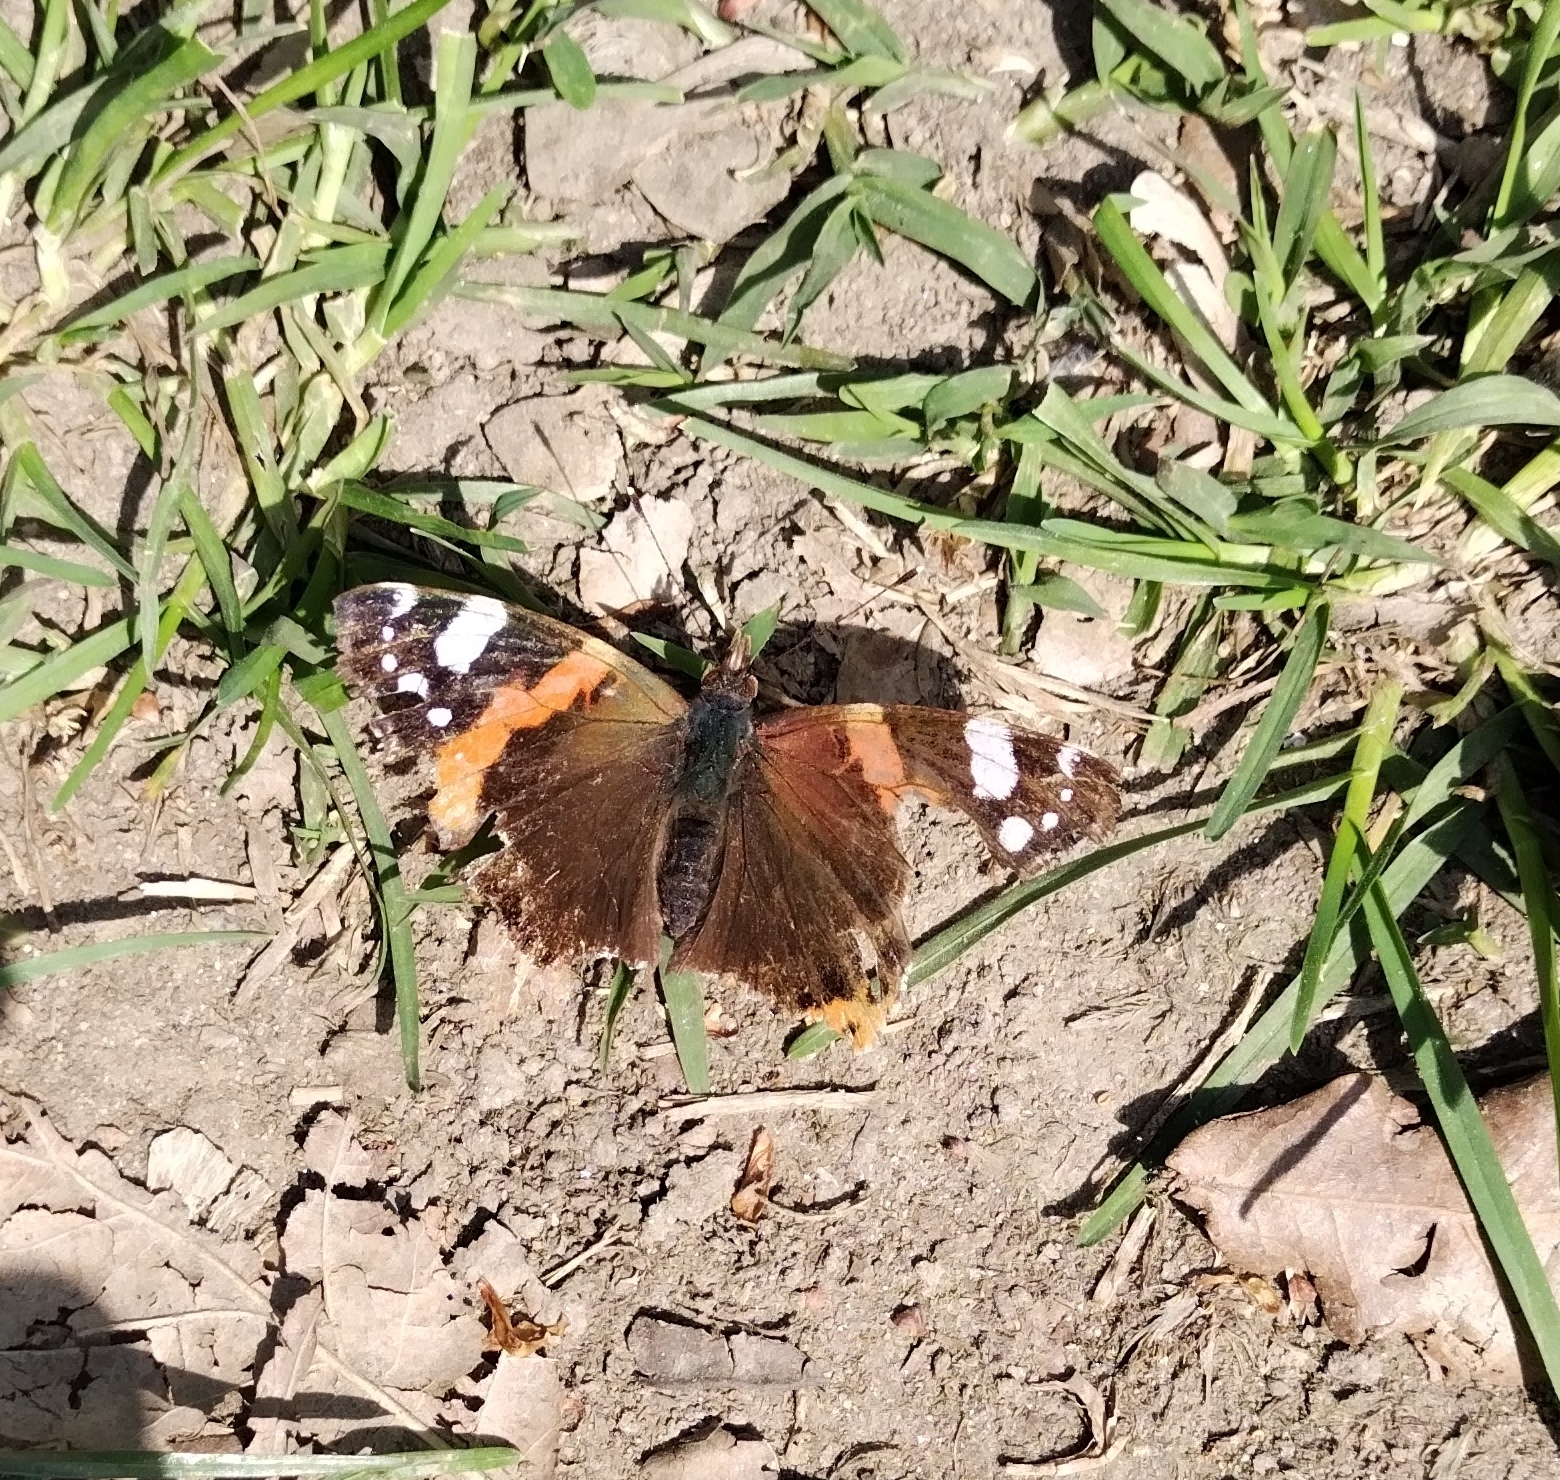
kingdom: Animalia
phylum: Arthropoda
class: Insecta
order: Lepidoptera
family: Nymphalidae
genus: Vanessa
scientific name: Vanessa atalanta
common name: Red admiral
